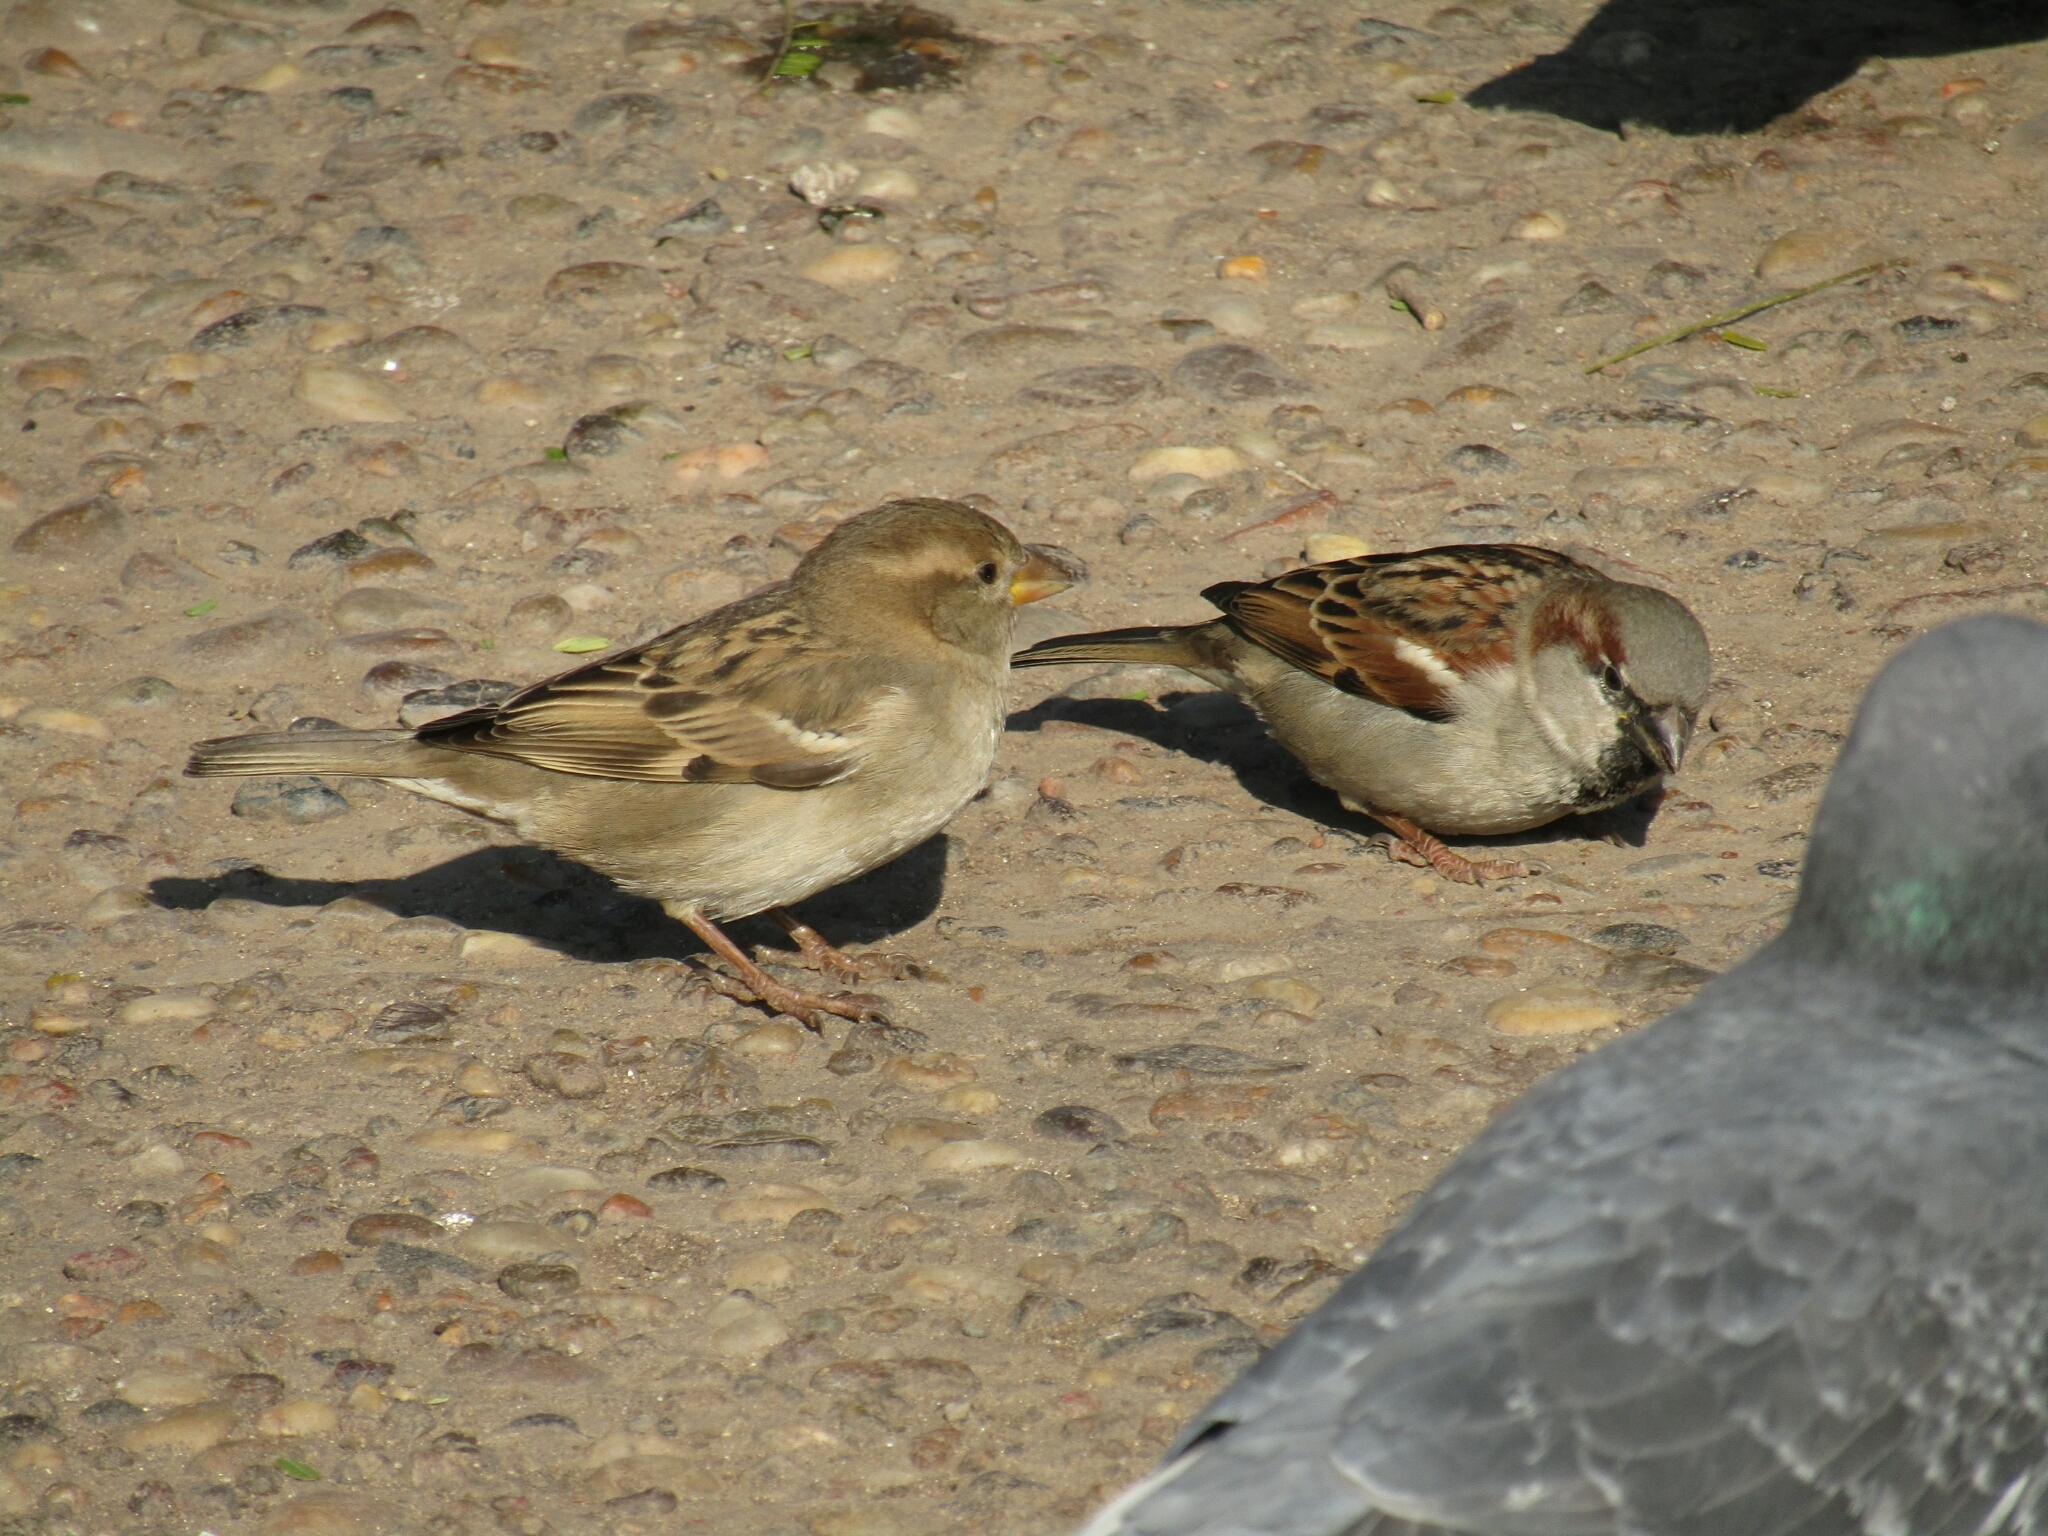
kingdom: Animalia
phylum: Chordata
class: Aves
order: Passeriformes
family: Passeridae
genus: Passer
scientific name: Passer domesticus
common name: House sparrow
